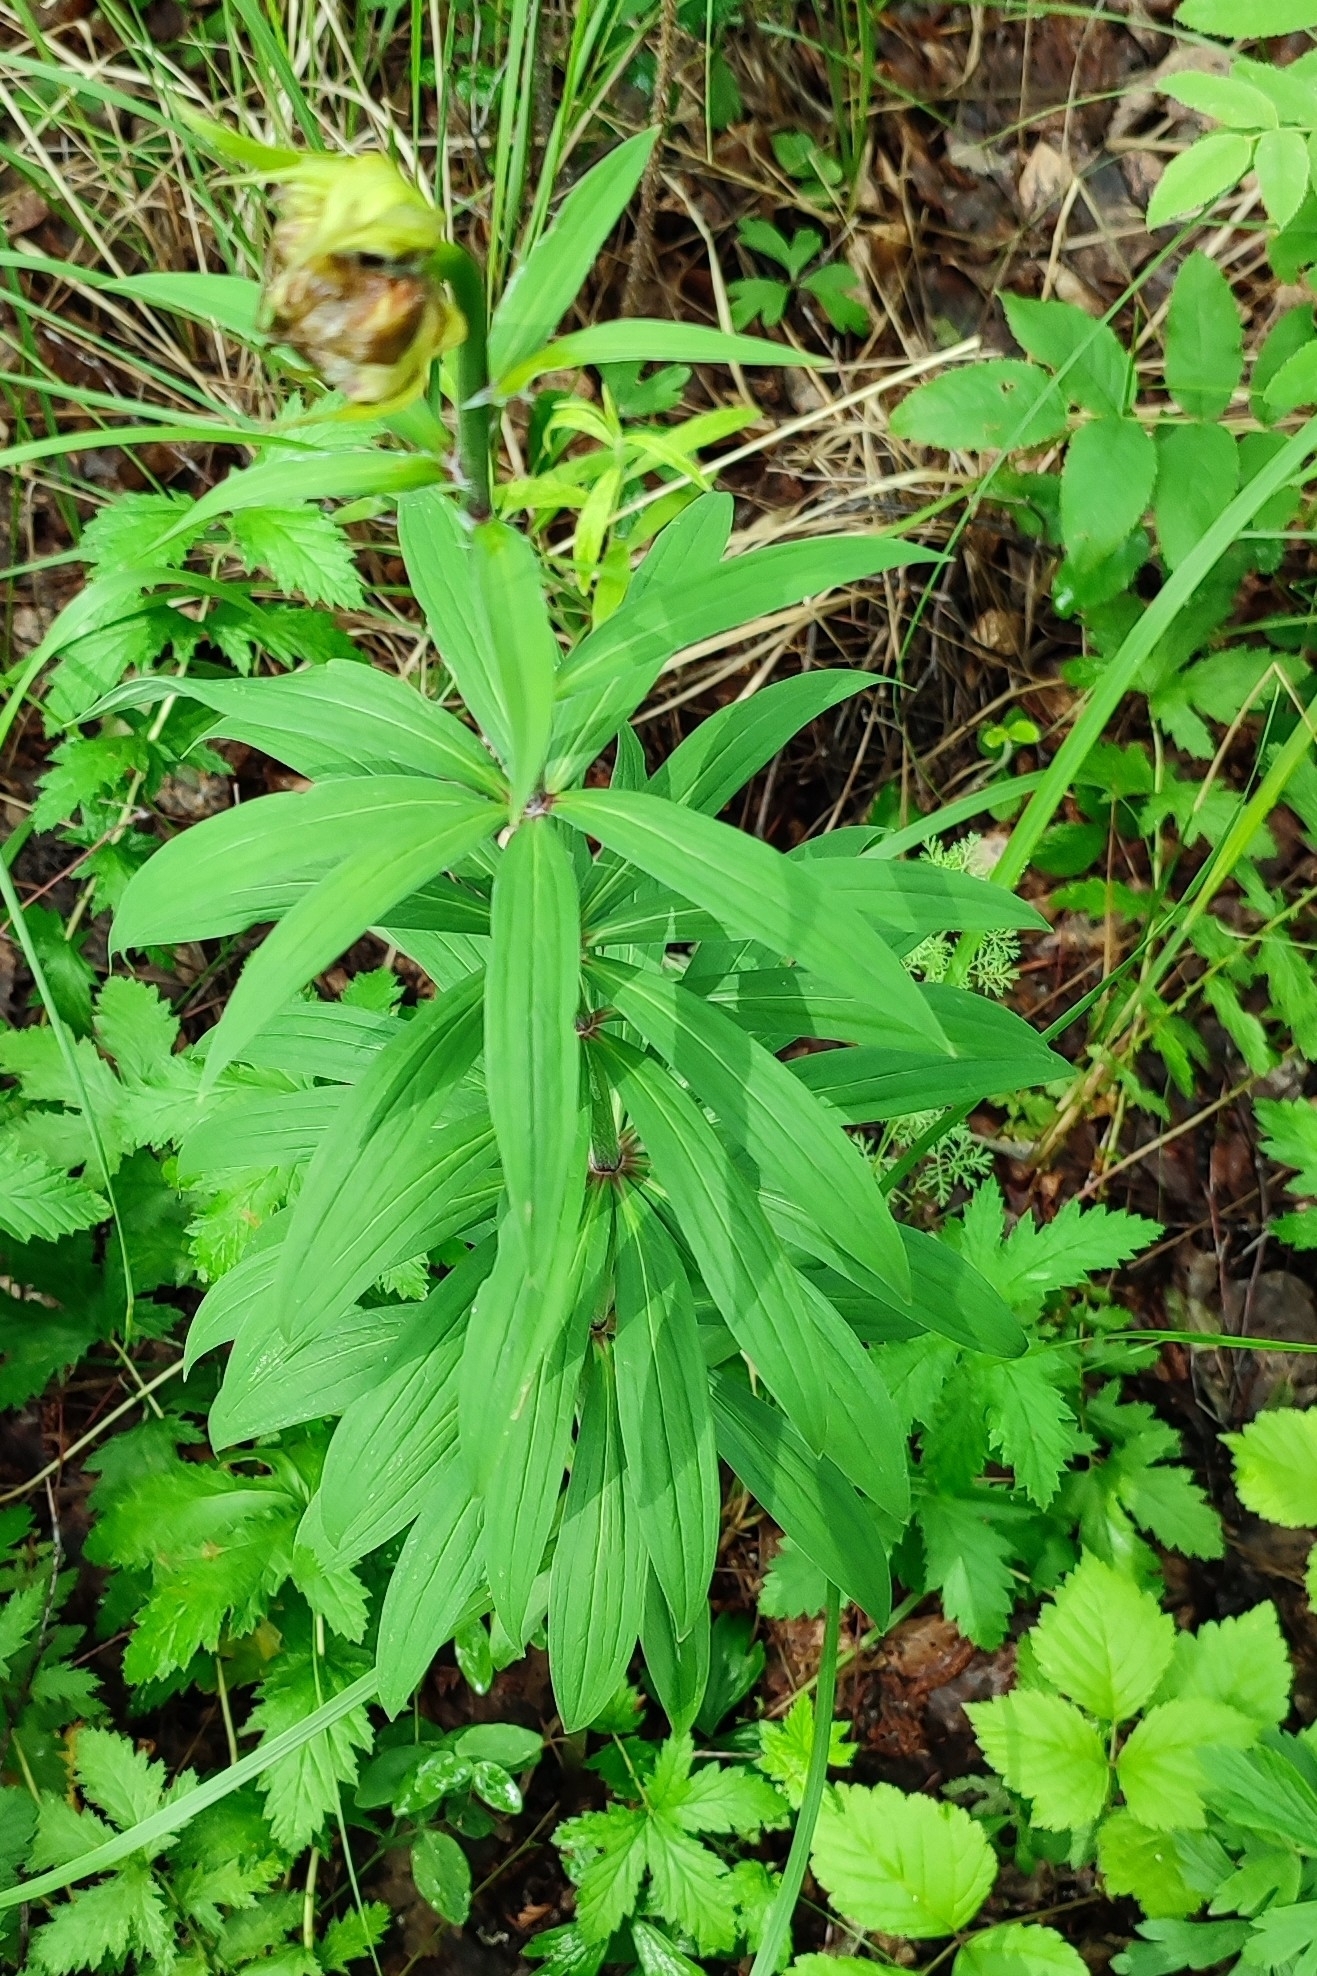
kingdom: Plantae
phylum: Tracheophyta
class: Liliopsida
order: Liliales
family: Liliaceae
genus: Lilium
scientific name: Lilium martagon
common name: Martagon lily
